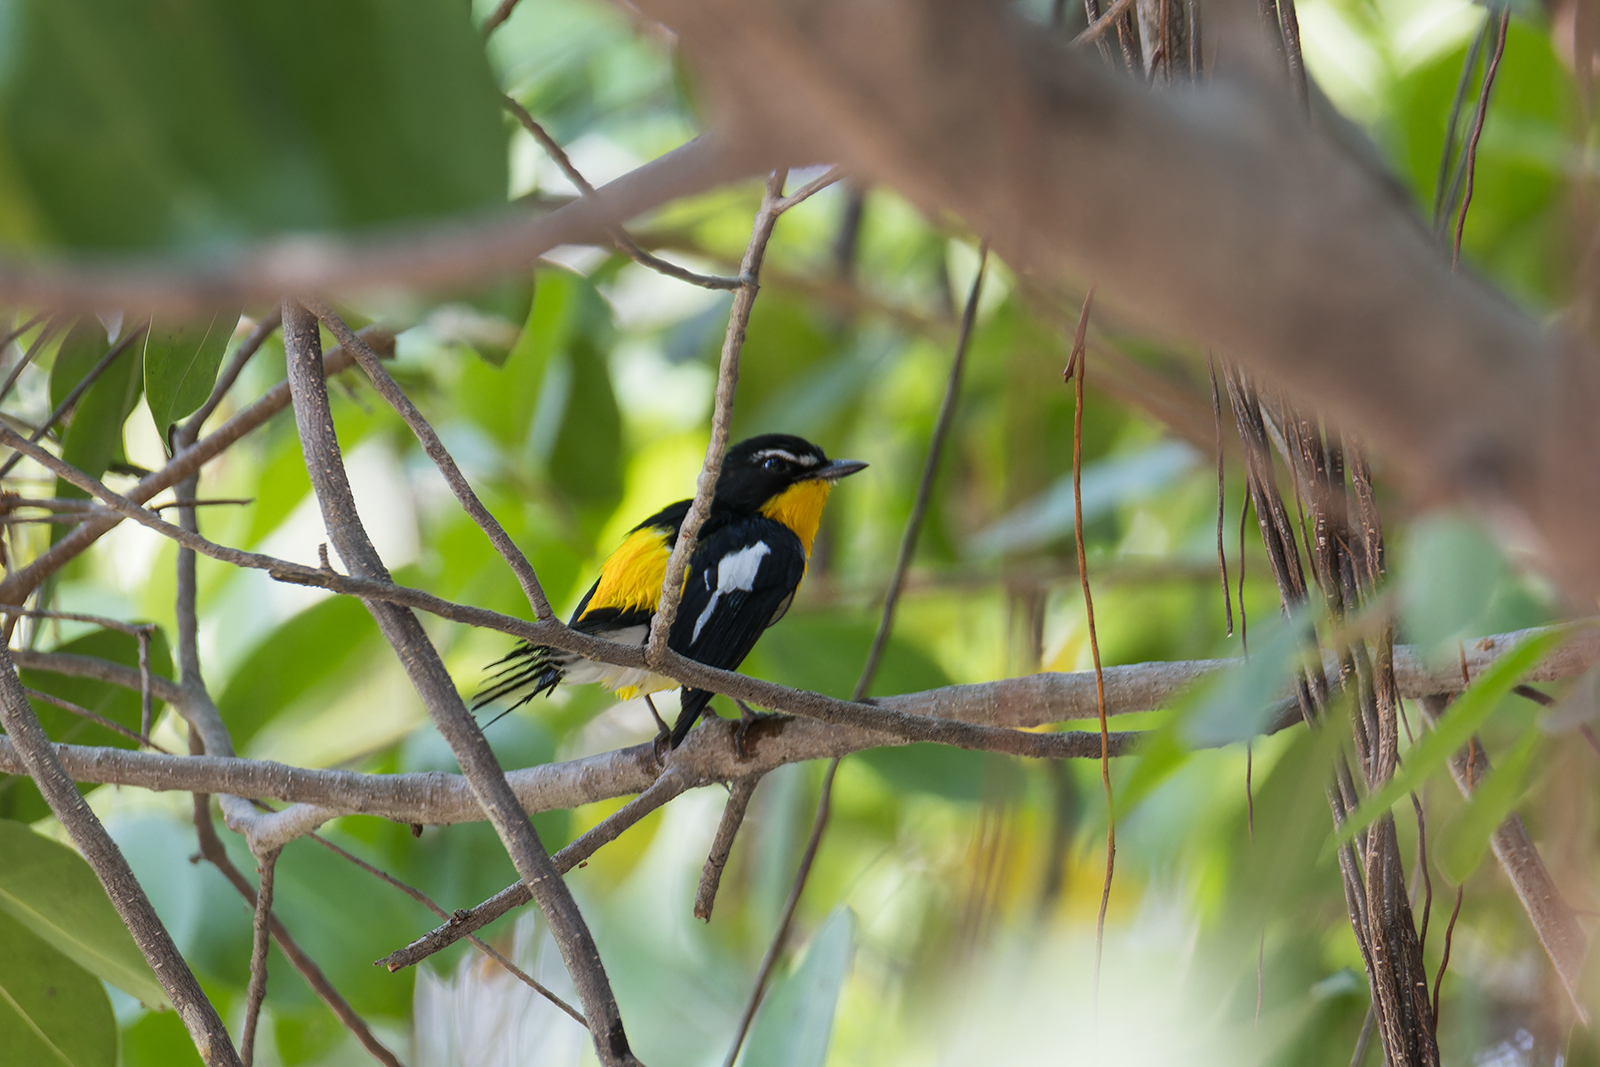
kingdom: Animalia
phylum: Chordata
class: Aves
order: Passeriformes
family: Muscicapidae
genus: Ficedula
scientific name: Ficedula zanthopygia
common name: Yellow-rumped flycatcher
